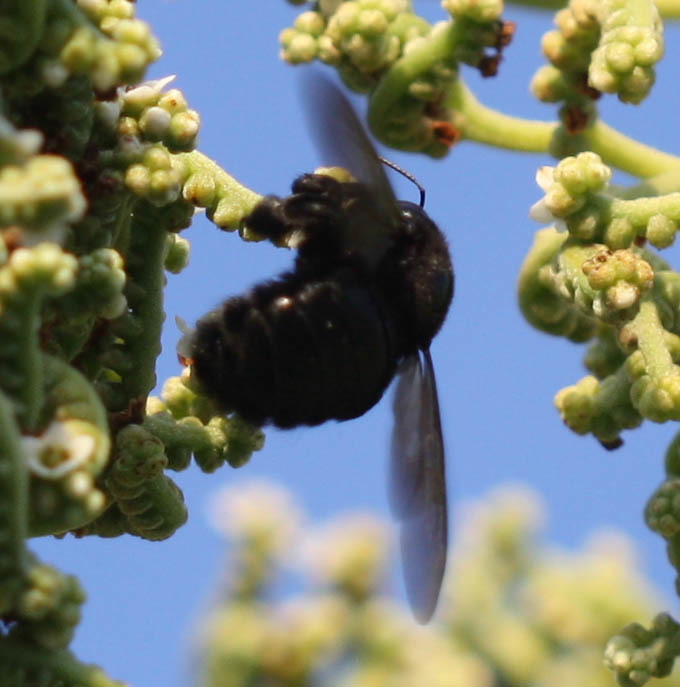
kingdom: Animalia
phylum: Arthropoda
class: Insecta
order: Hymenoptera
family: Apidae
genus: Xylocopa
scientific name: Xylocopa sonorina
